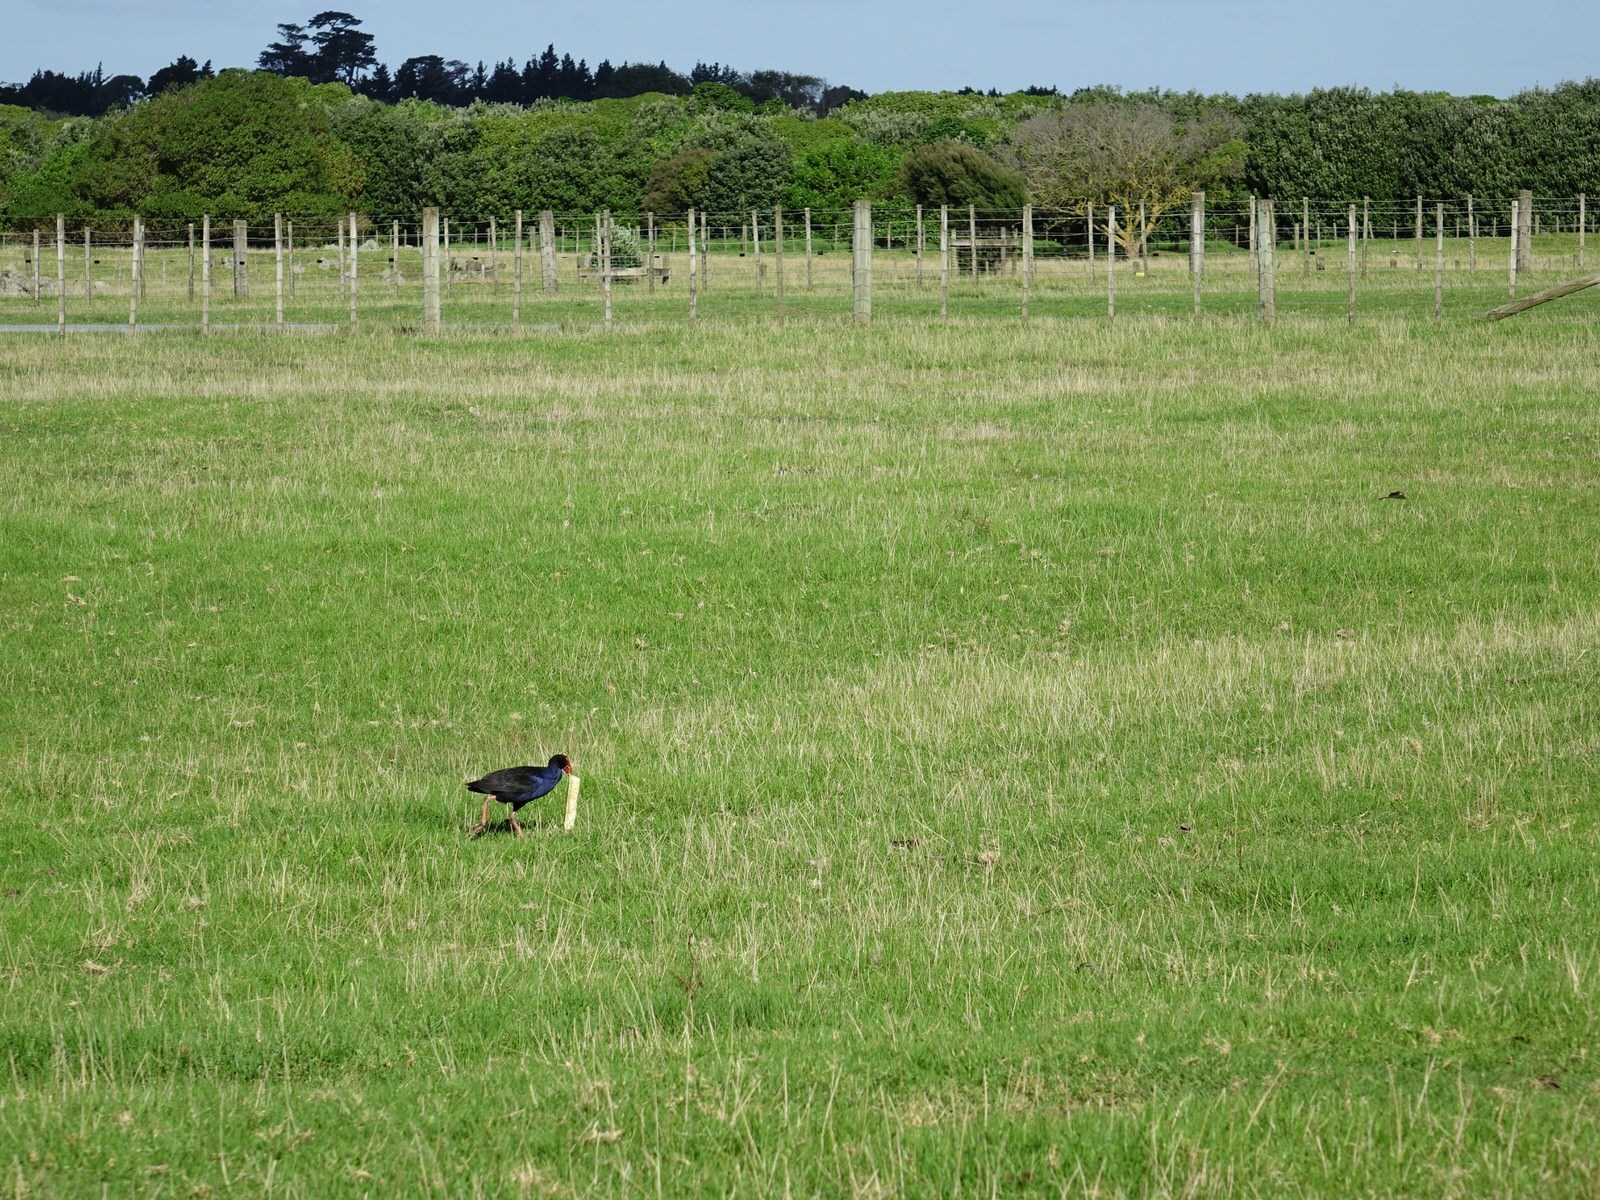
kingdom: Animalia
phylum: Chordata
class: Aves
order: Gruiformes
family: Rallidae
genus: Porphyrio
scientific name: Porphyrio melanotus
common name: Australasian swamphen
